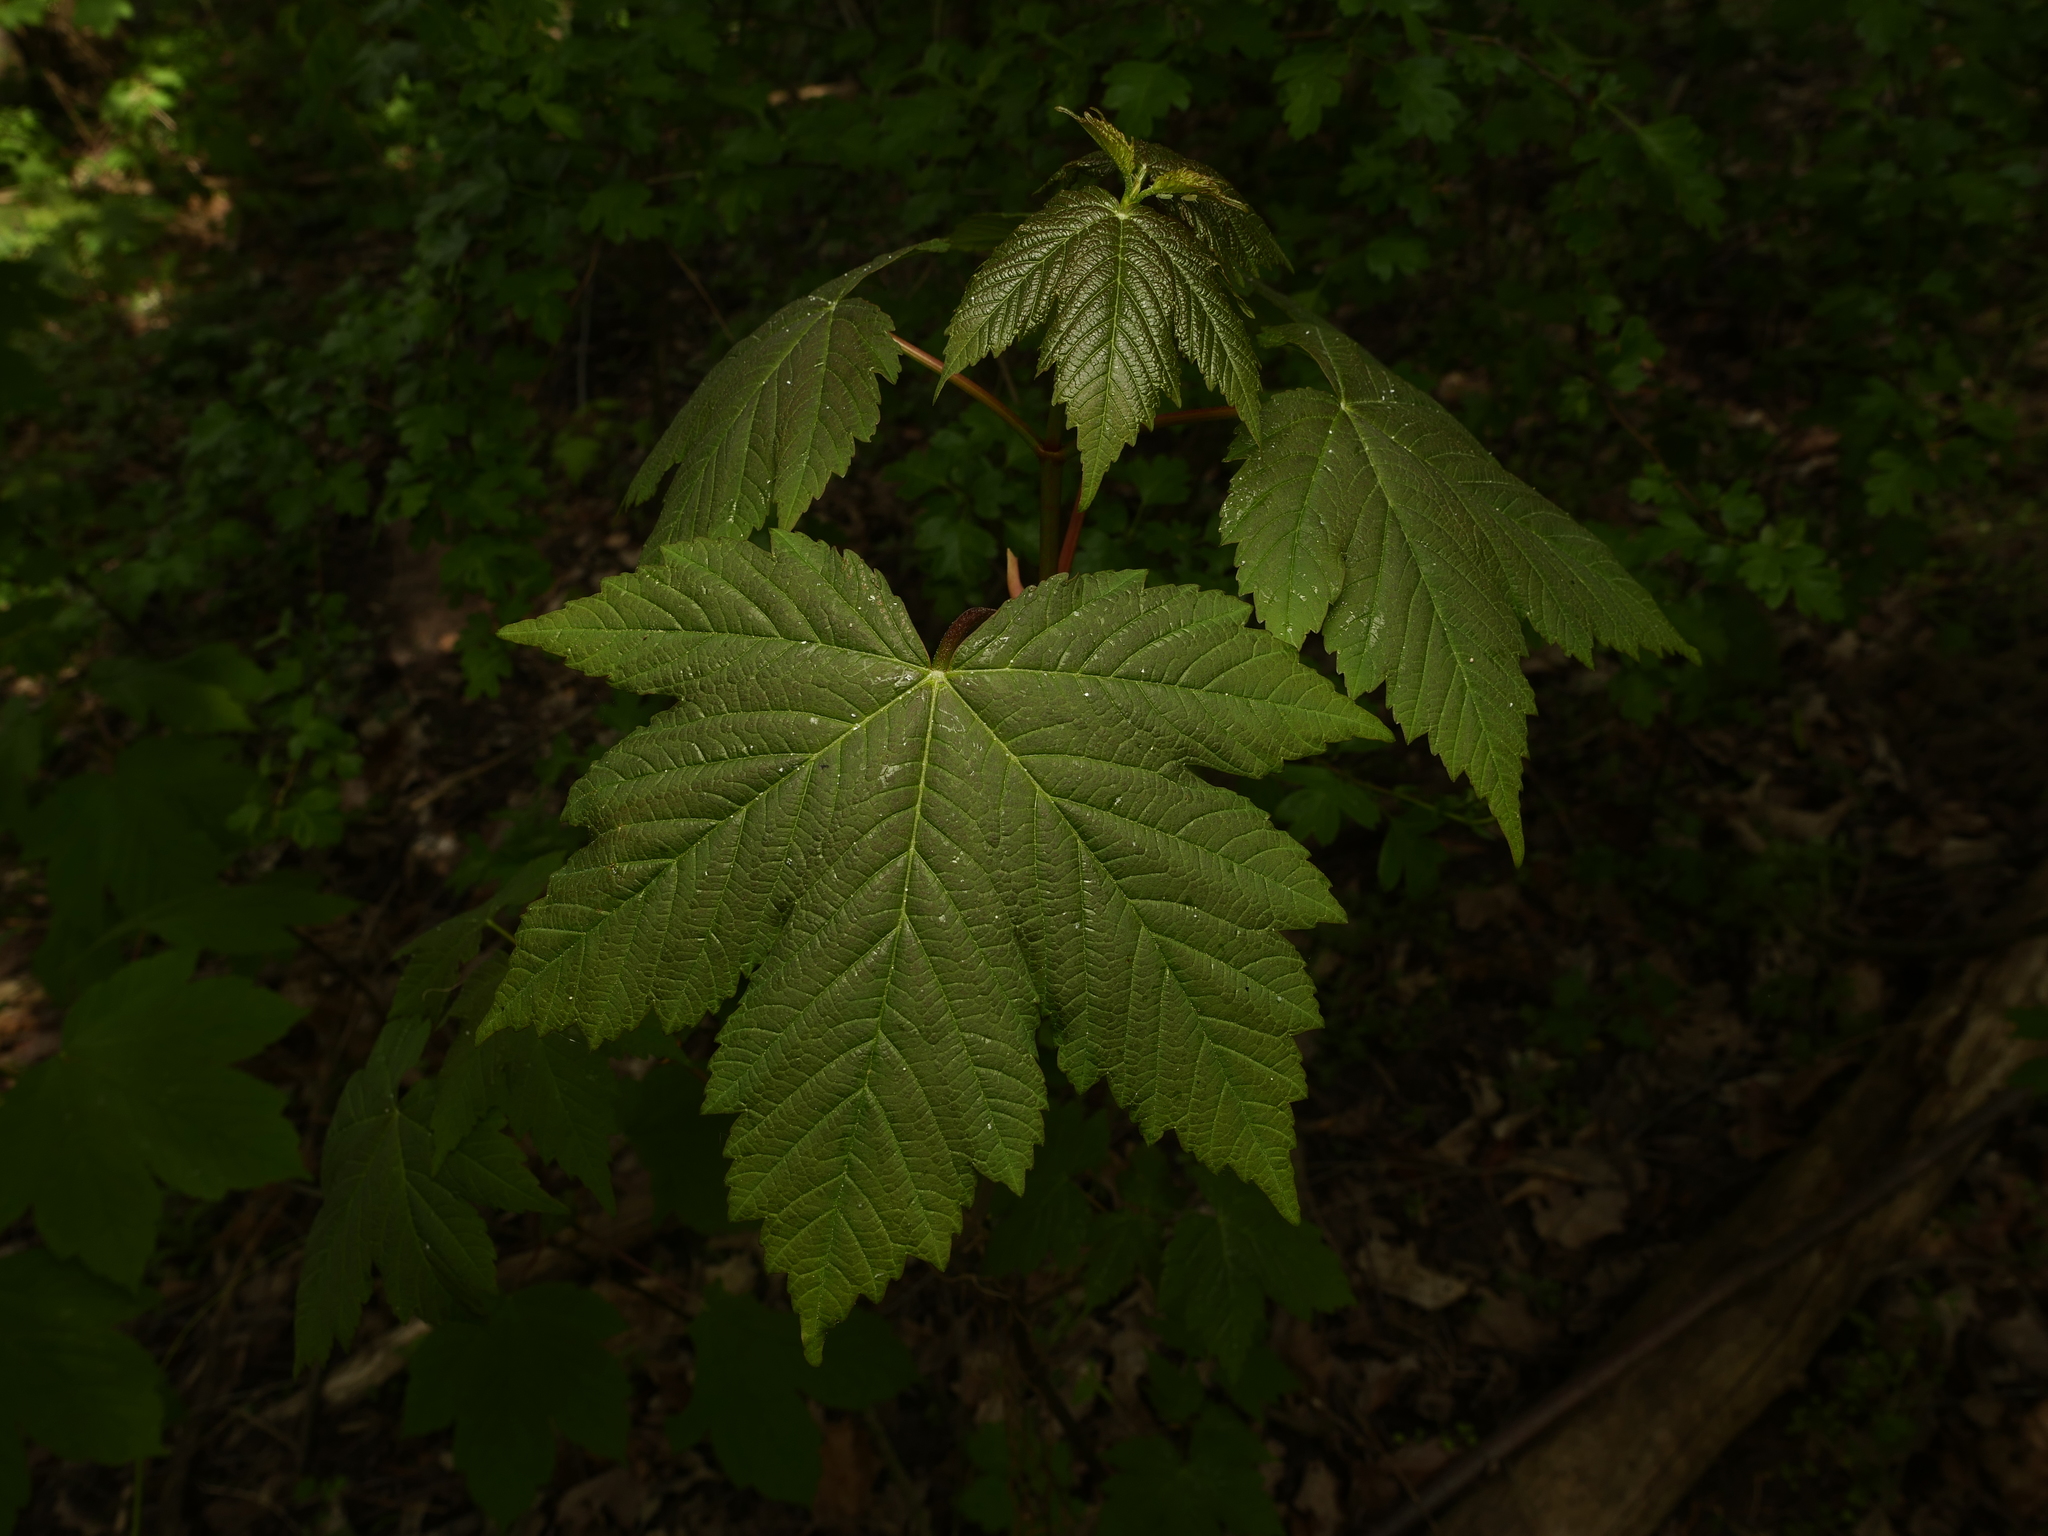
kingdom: Plantae
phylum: Tracheophyta
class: Magnoliopsida
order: Sapindales
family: Sapindaceae
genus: Acer
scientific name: Acer pseudoplatanus
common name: Sycamore
